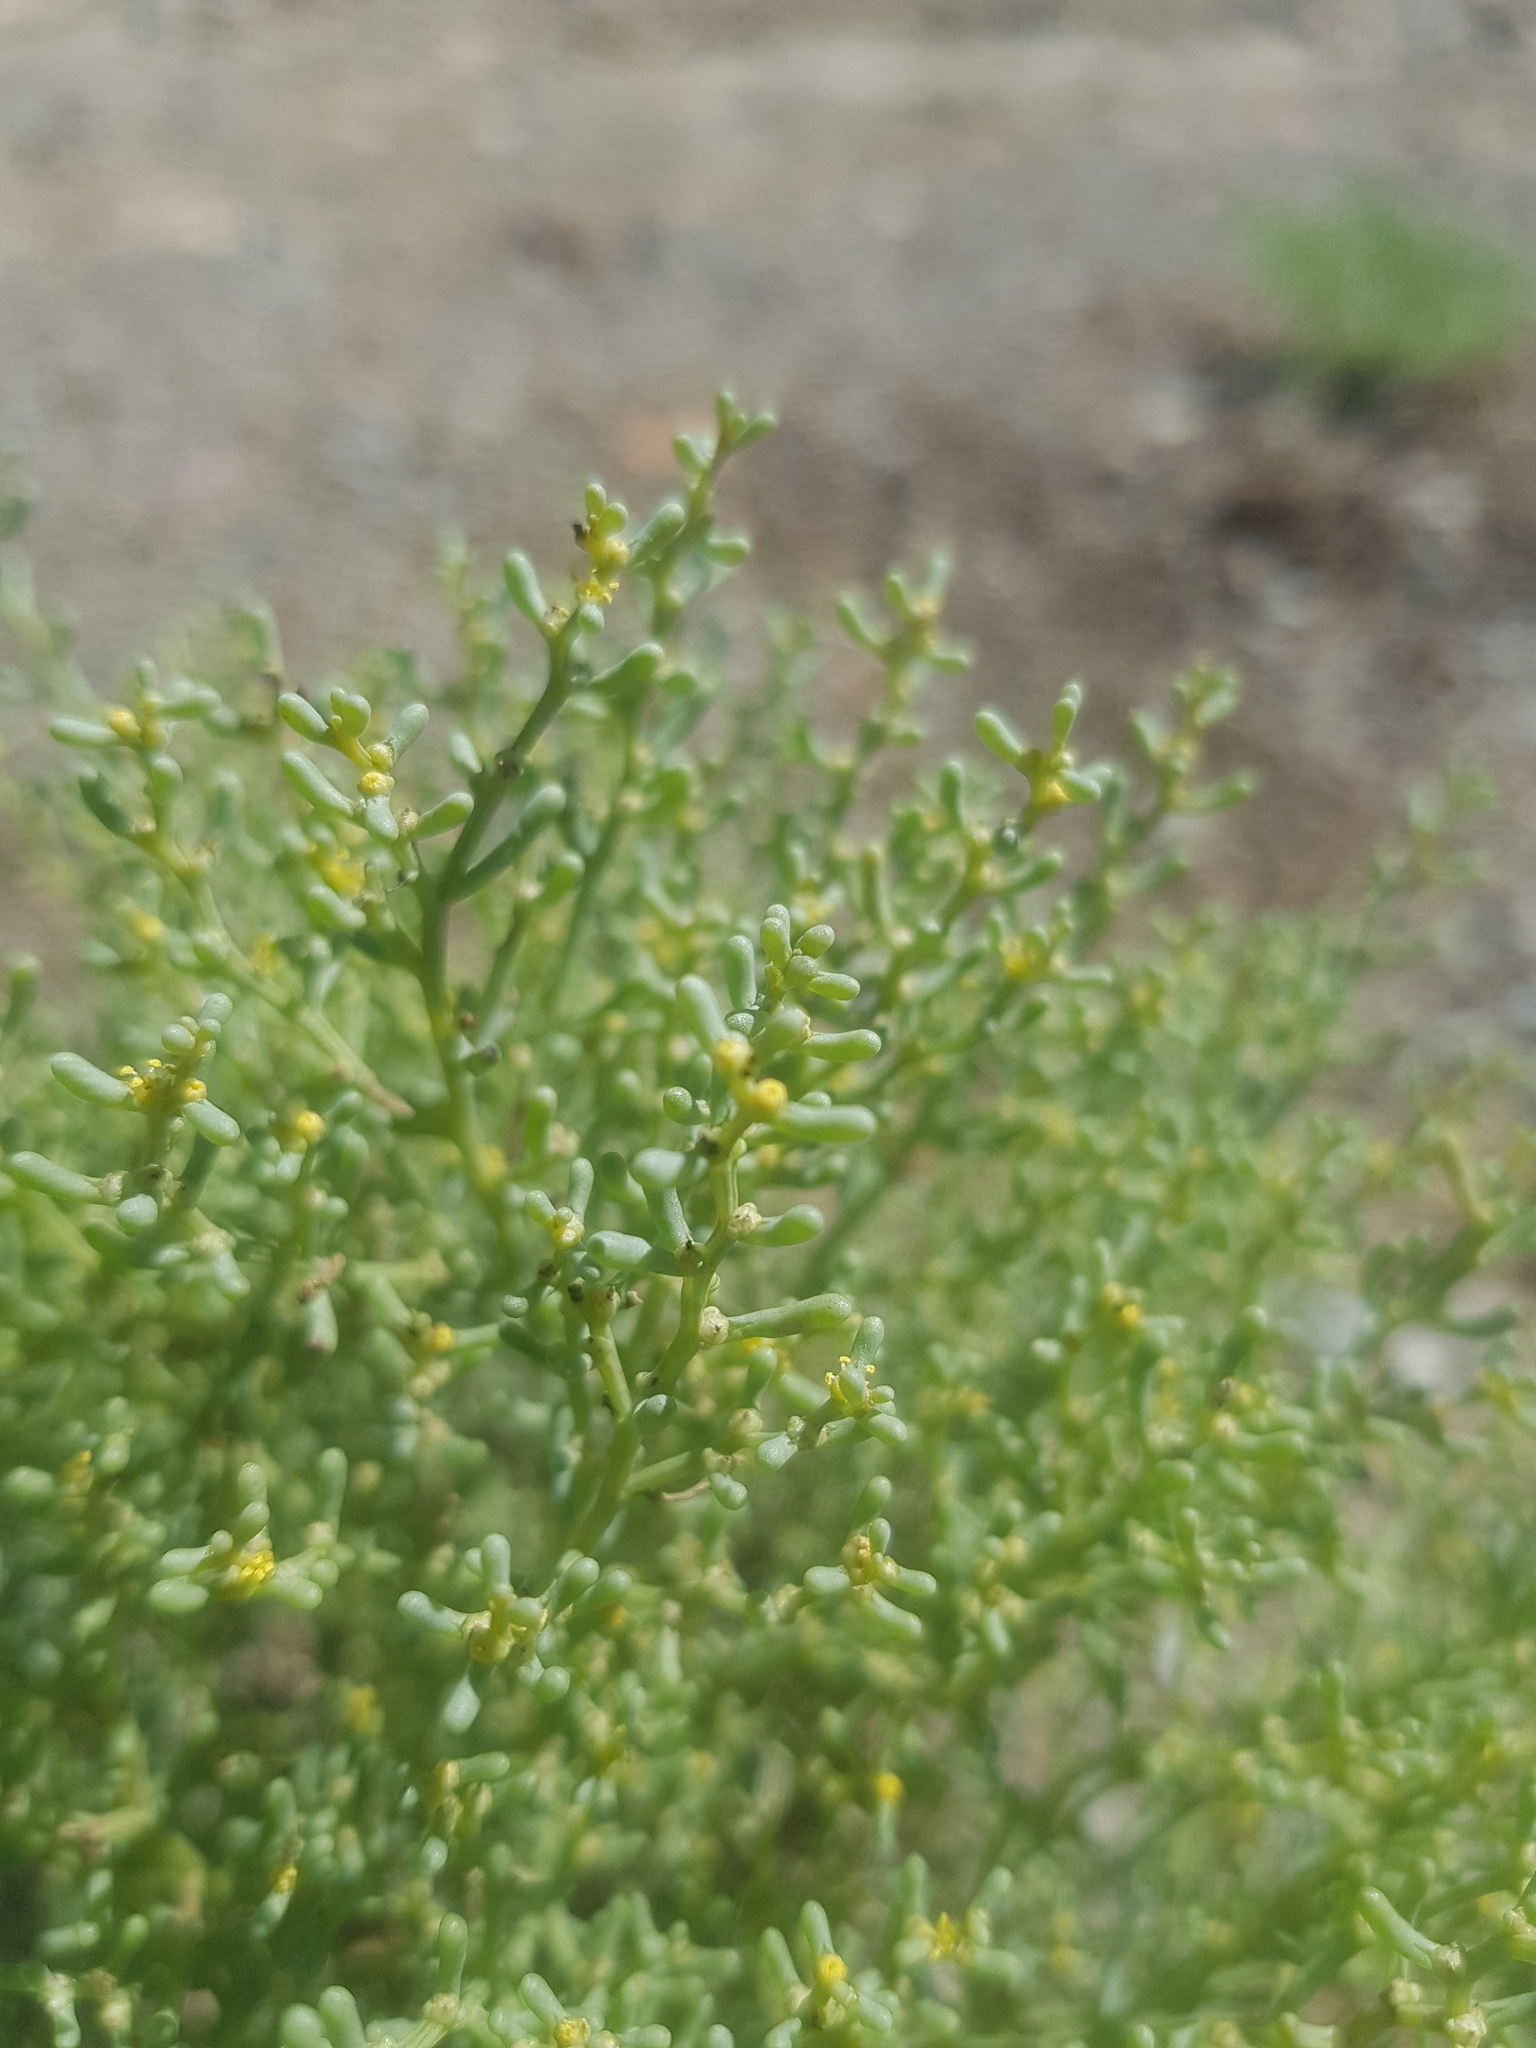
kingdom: Plantae
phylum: Tracheophyta
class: Magnoliopsida
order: Caryophyllales
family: Amaranthaceae
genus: Haloxylon
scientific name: Haloxylon regelii
